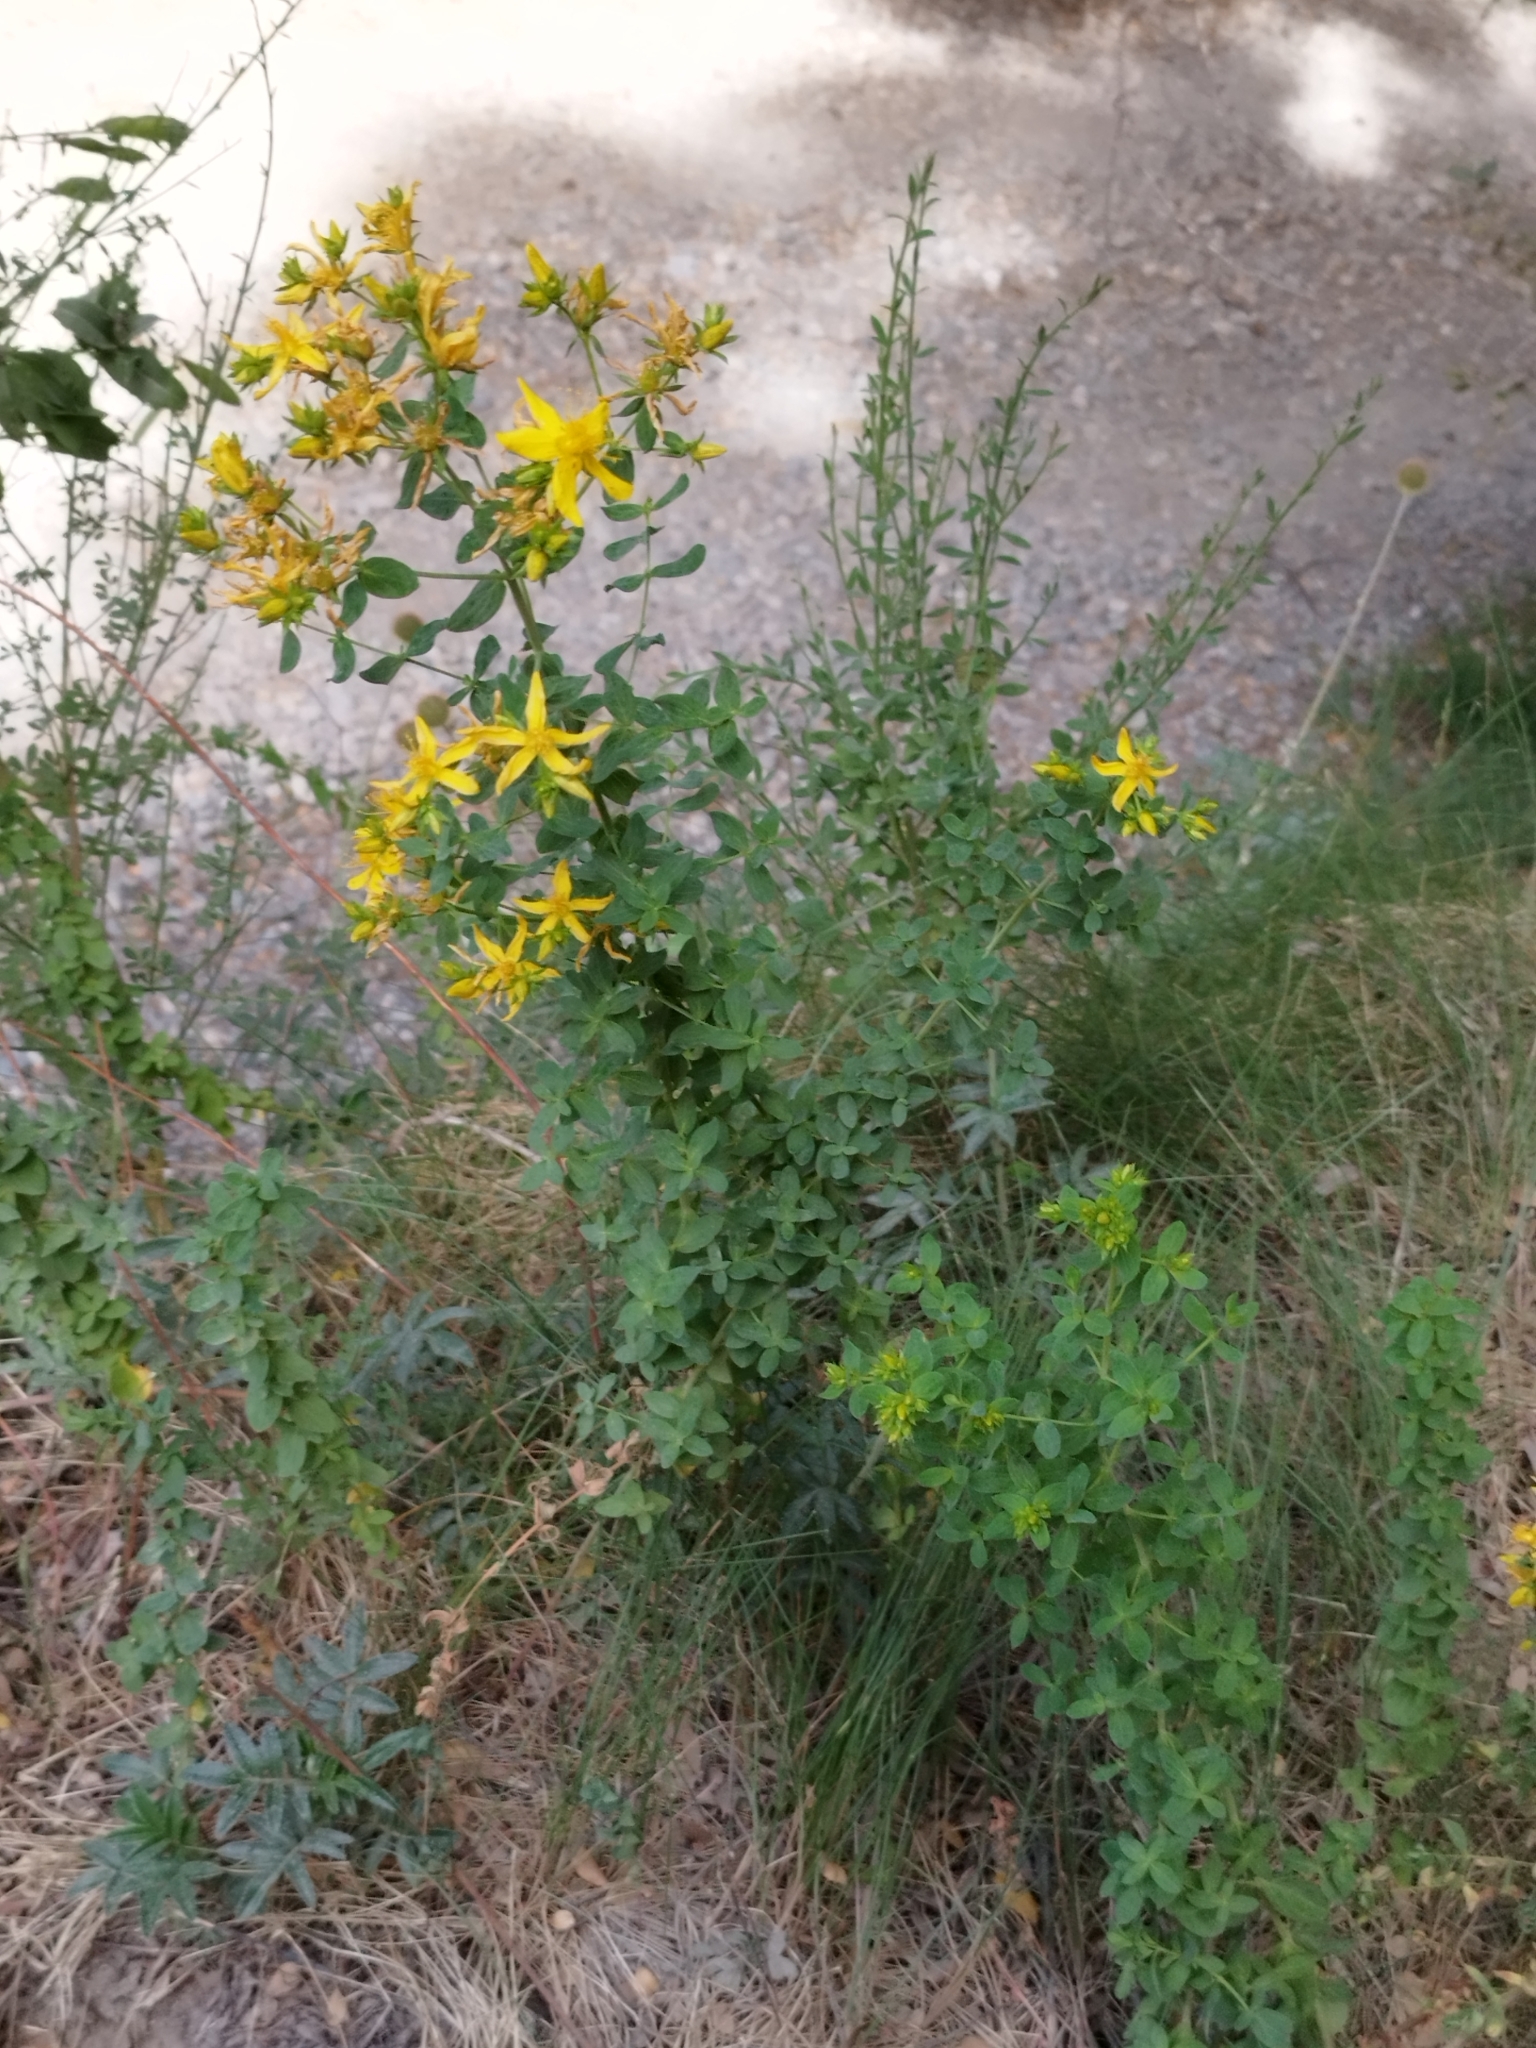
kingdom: Plantae
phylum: Tracheophyta
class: Magnoliopsida
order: Malpighiales
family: Hypericaceae
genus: Hypericum
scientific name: Hypericum perforatum
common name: Common st. johnswort
